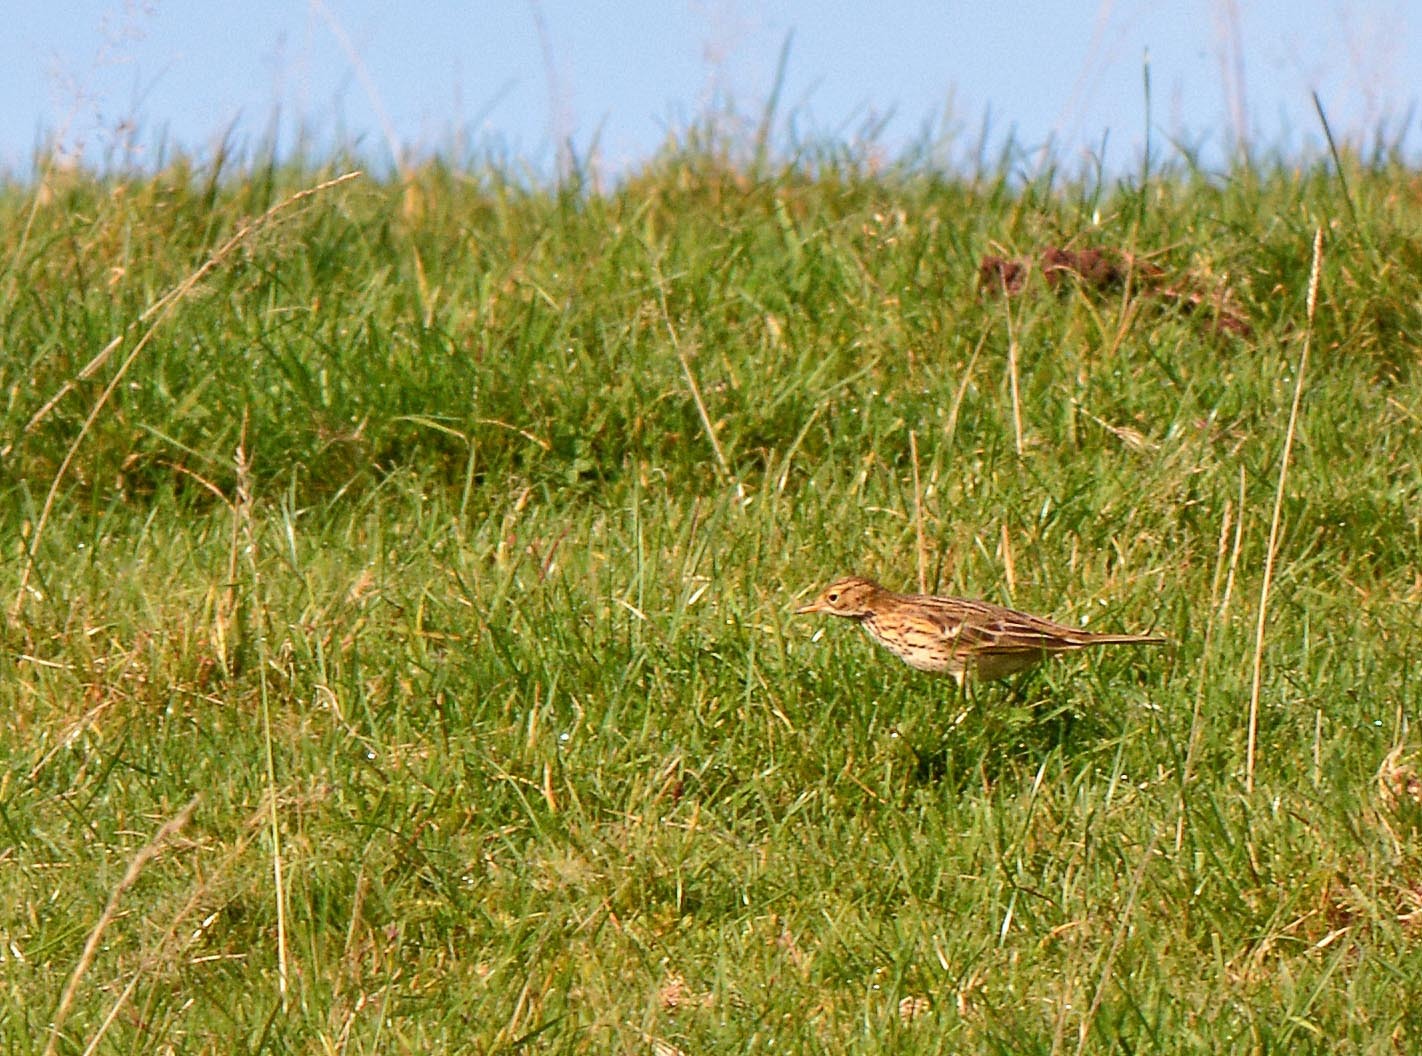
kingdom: Animalia
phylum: Chordata
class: Aves
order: Passeriformes
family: Motacillidae
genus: Anthus
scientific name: Anthus pratensis
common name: Meadow pipit
